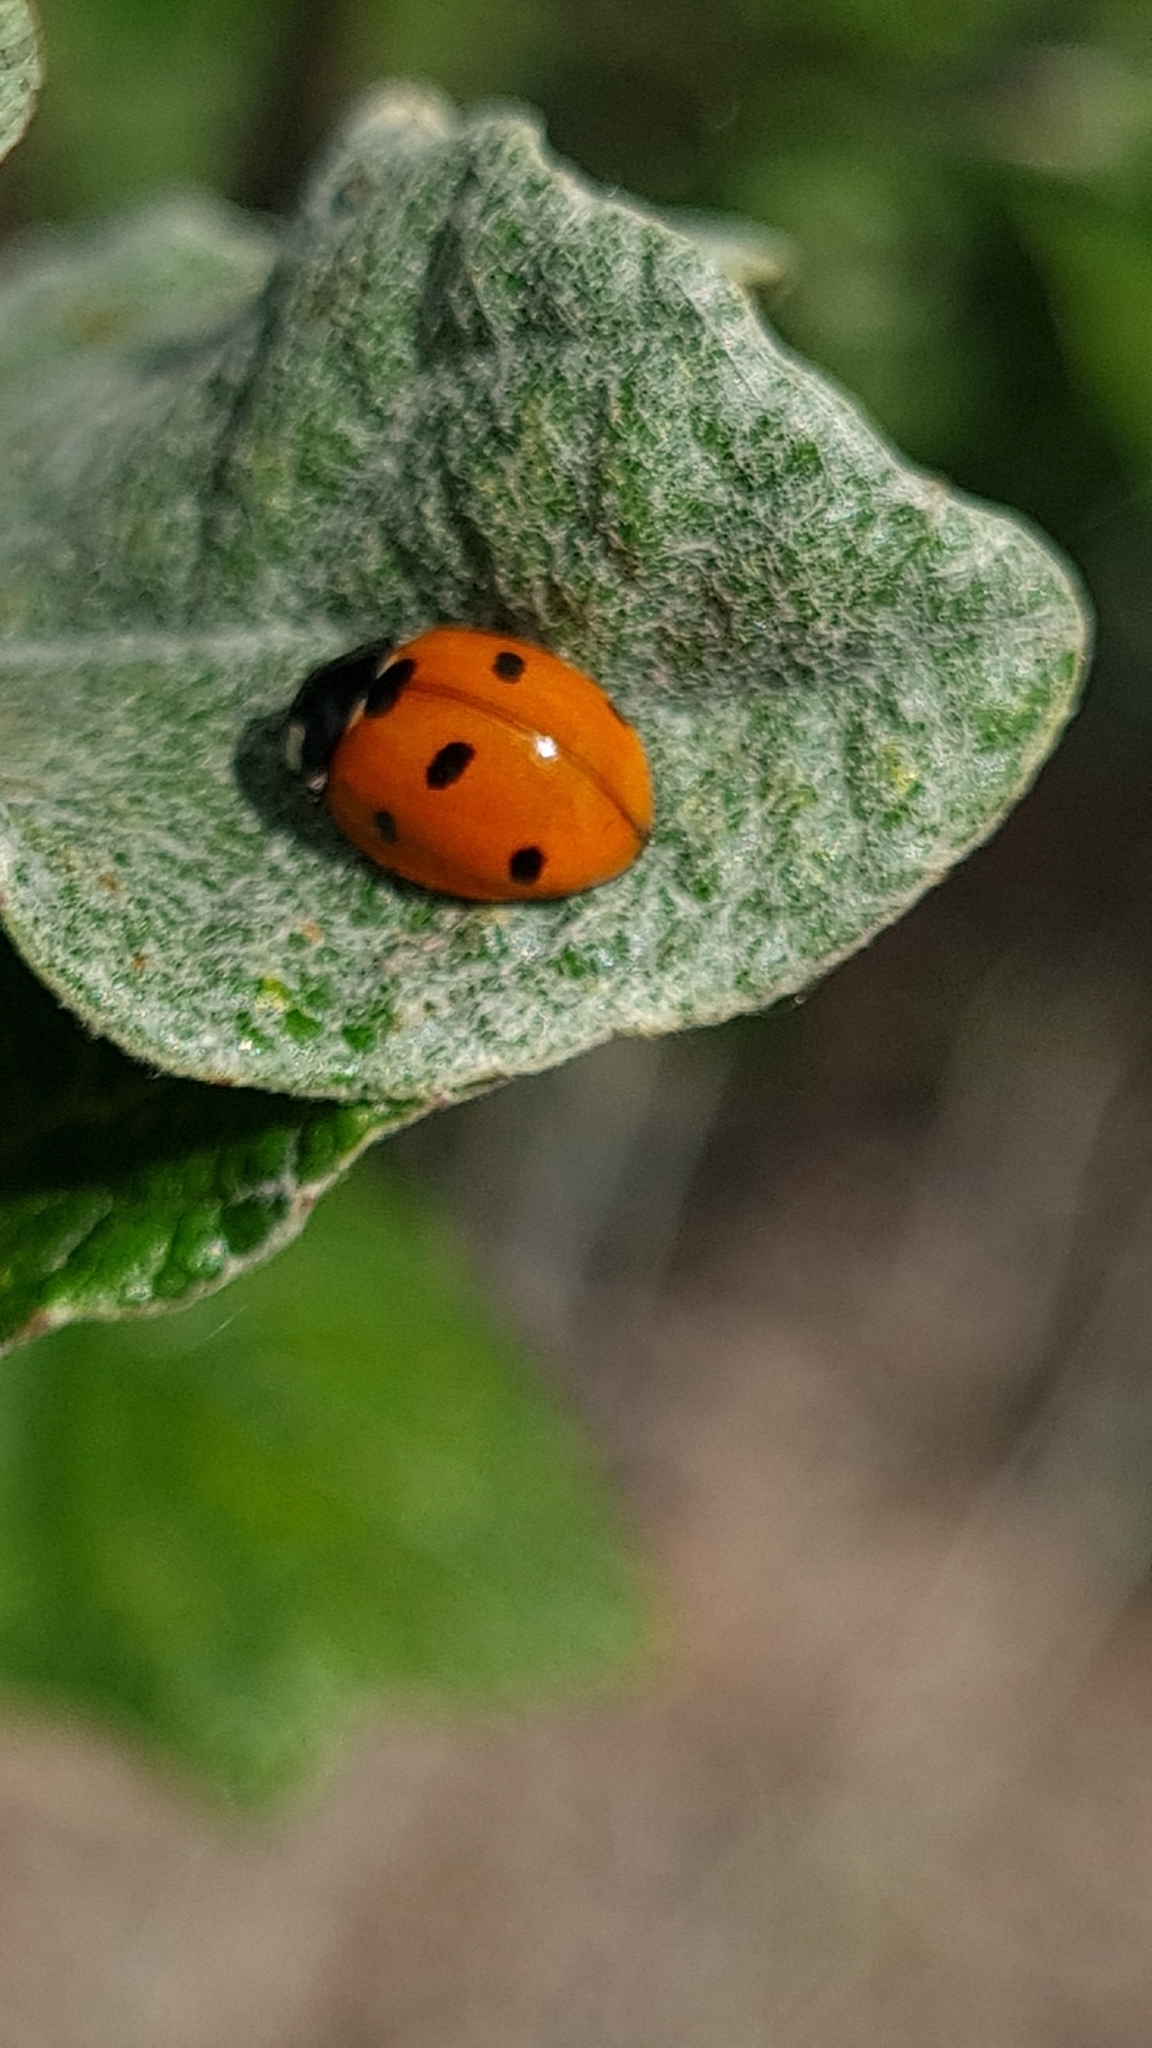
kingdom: Animalia
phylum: Arthropoda
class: Insecta
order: Coleoptera
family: Coccinellidae
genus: Coccinella
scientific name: Coccinella septempunctata
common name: Sevenspotted lady beetle
